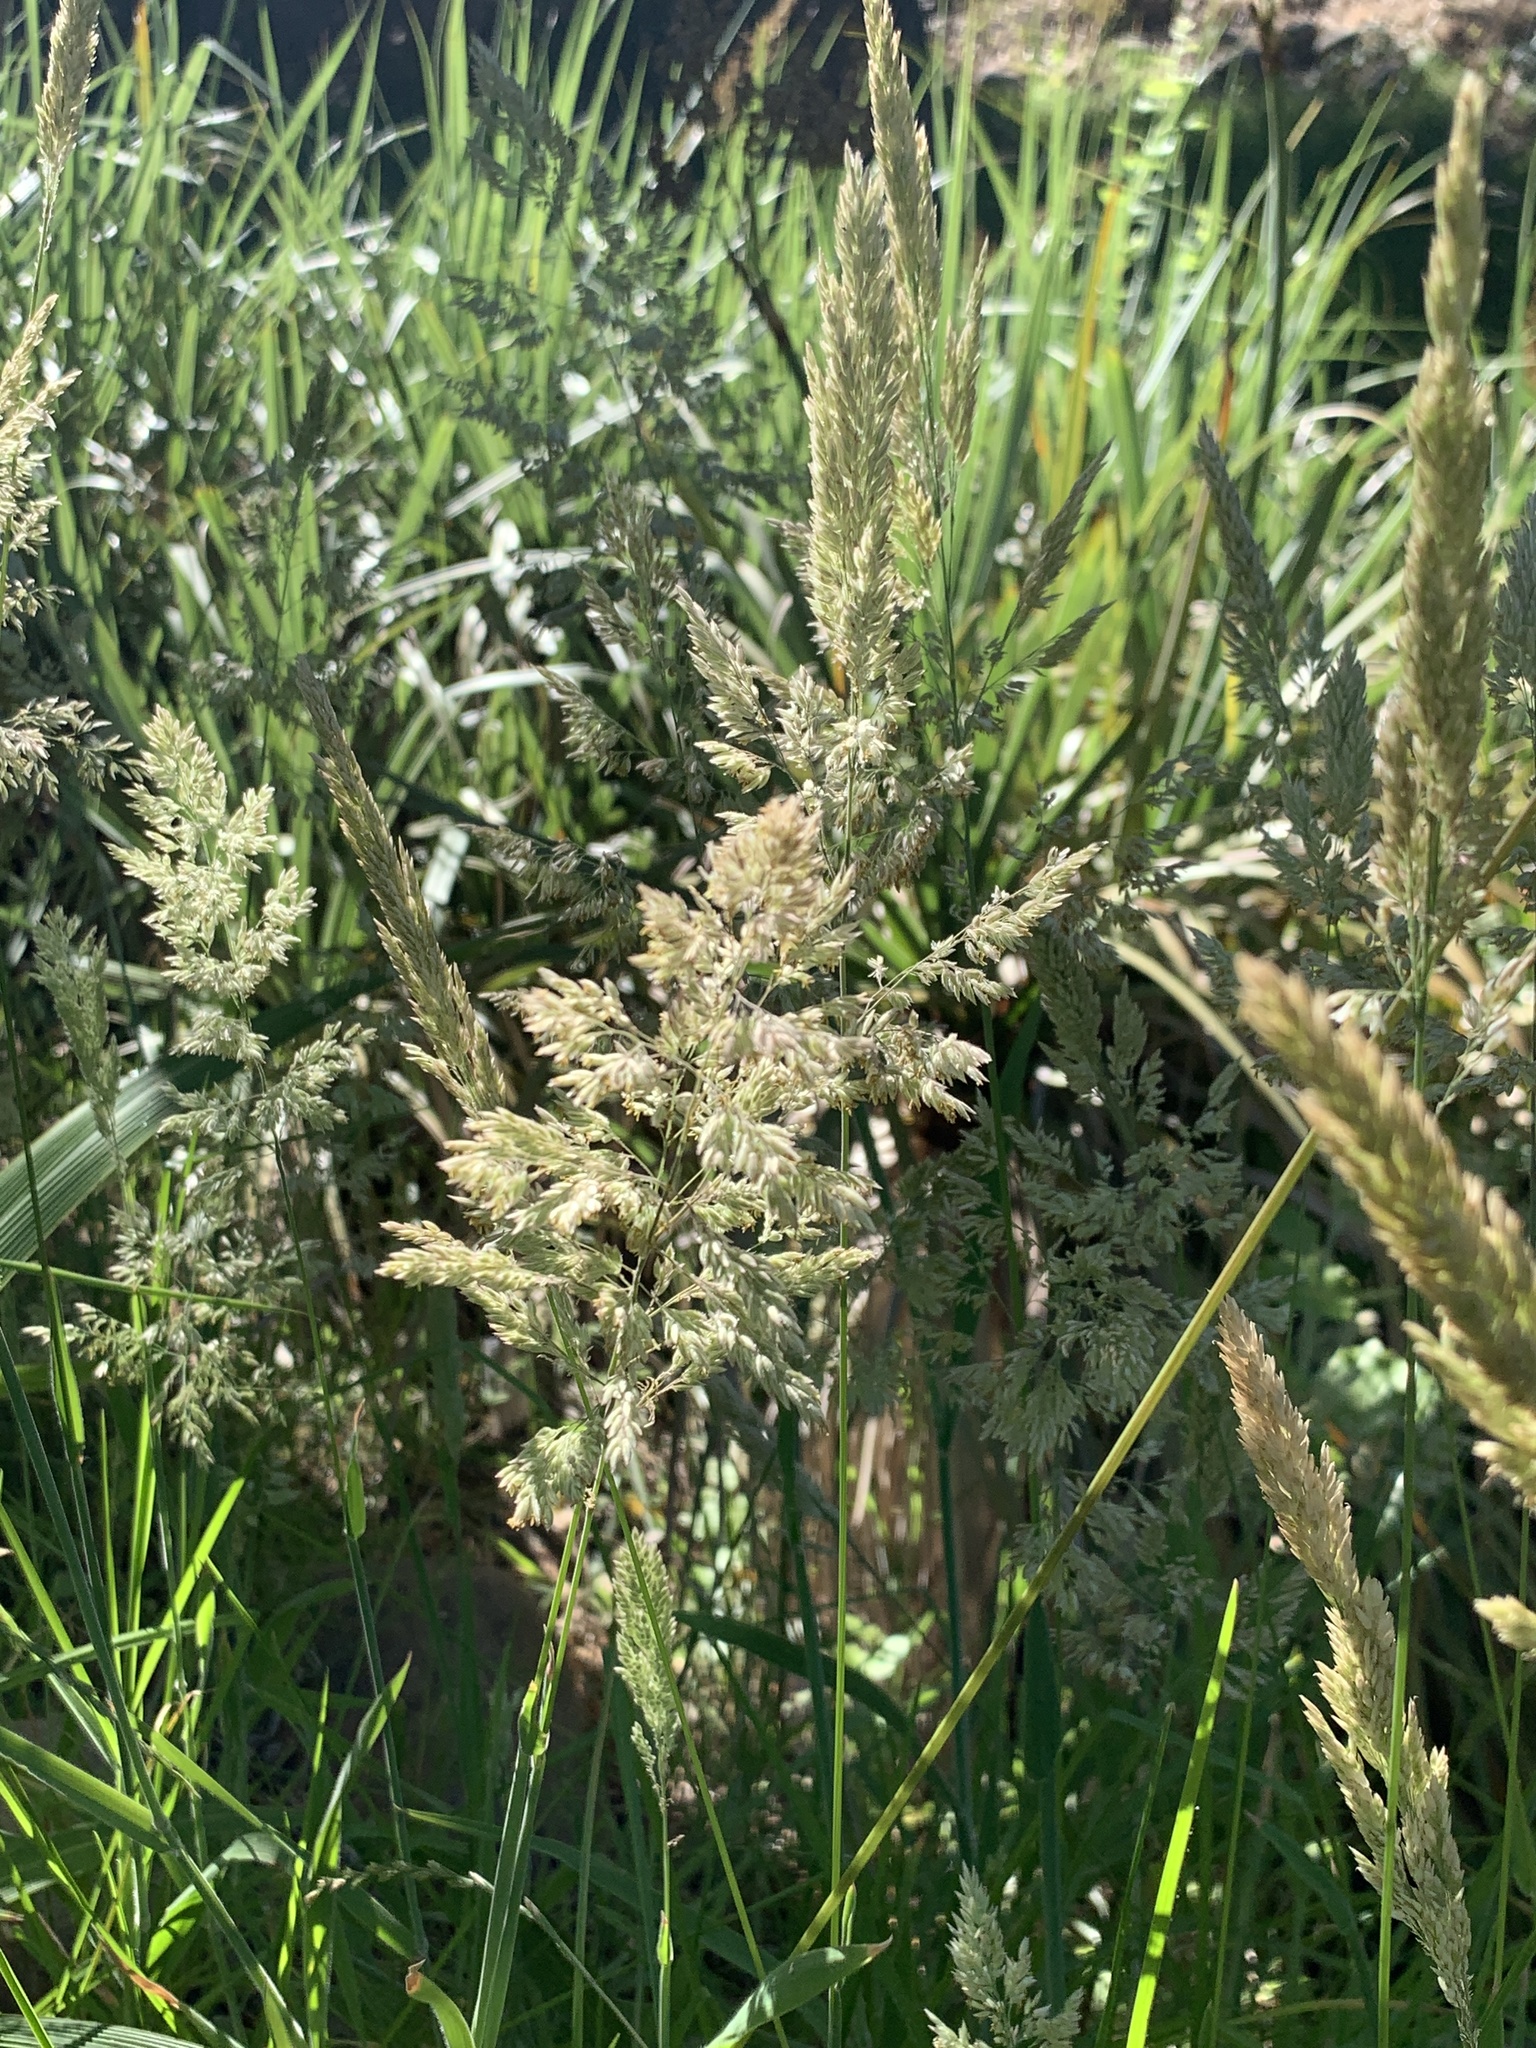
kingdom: Plantae
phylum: Tracheophyta
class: Liliopsida
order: Poales
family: Poaceae
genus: Holcus
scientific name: Holcus lanatus
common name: Yorkshire-fog
